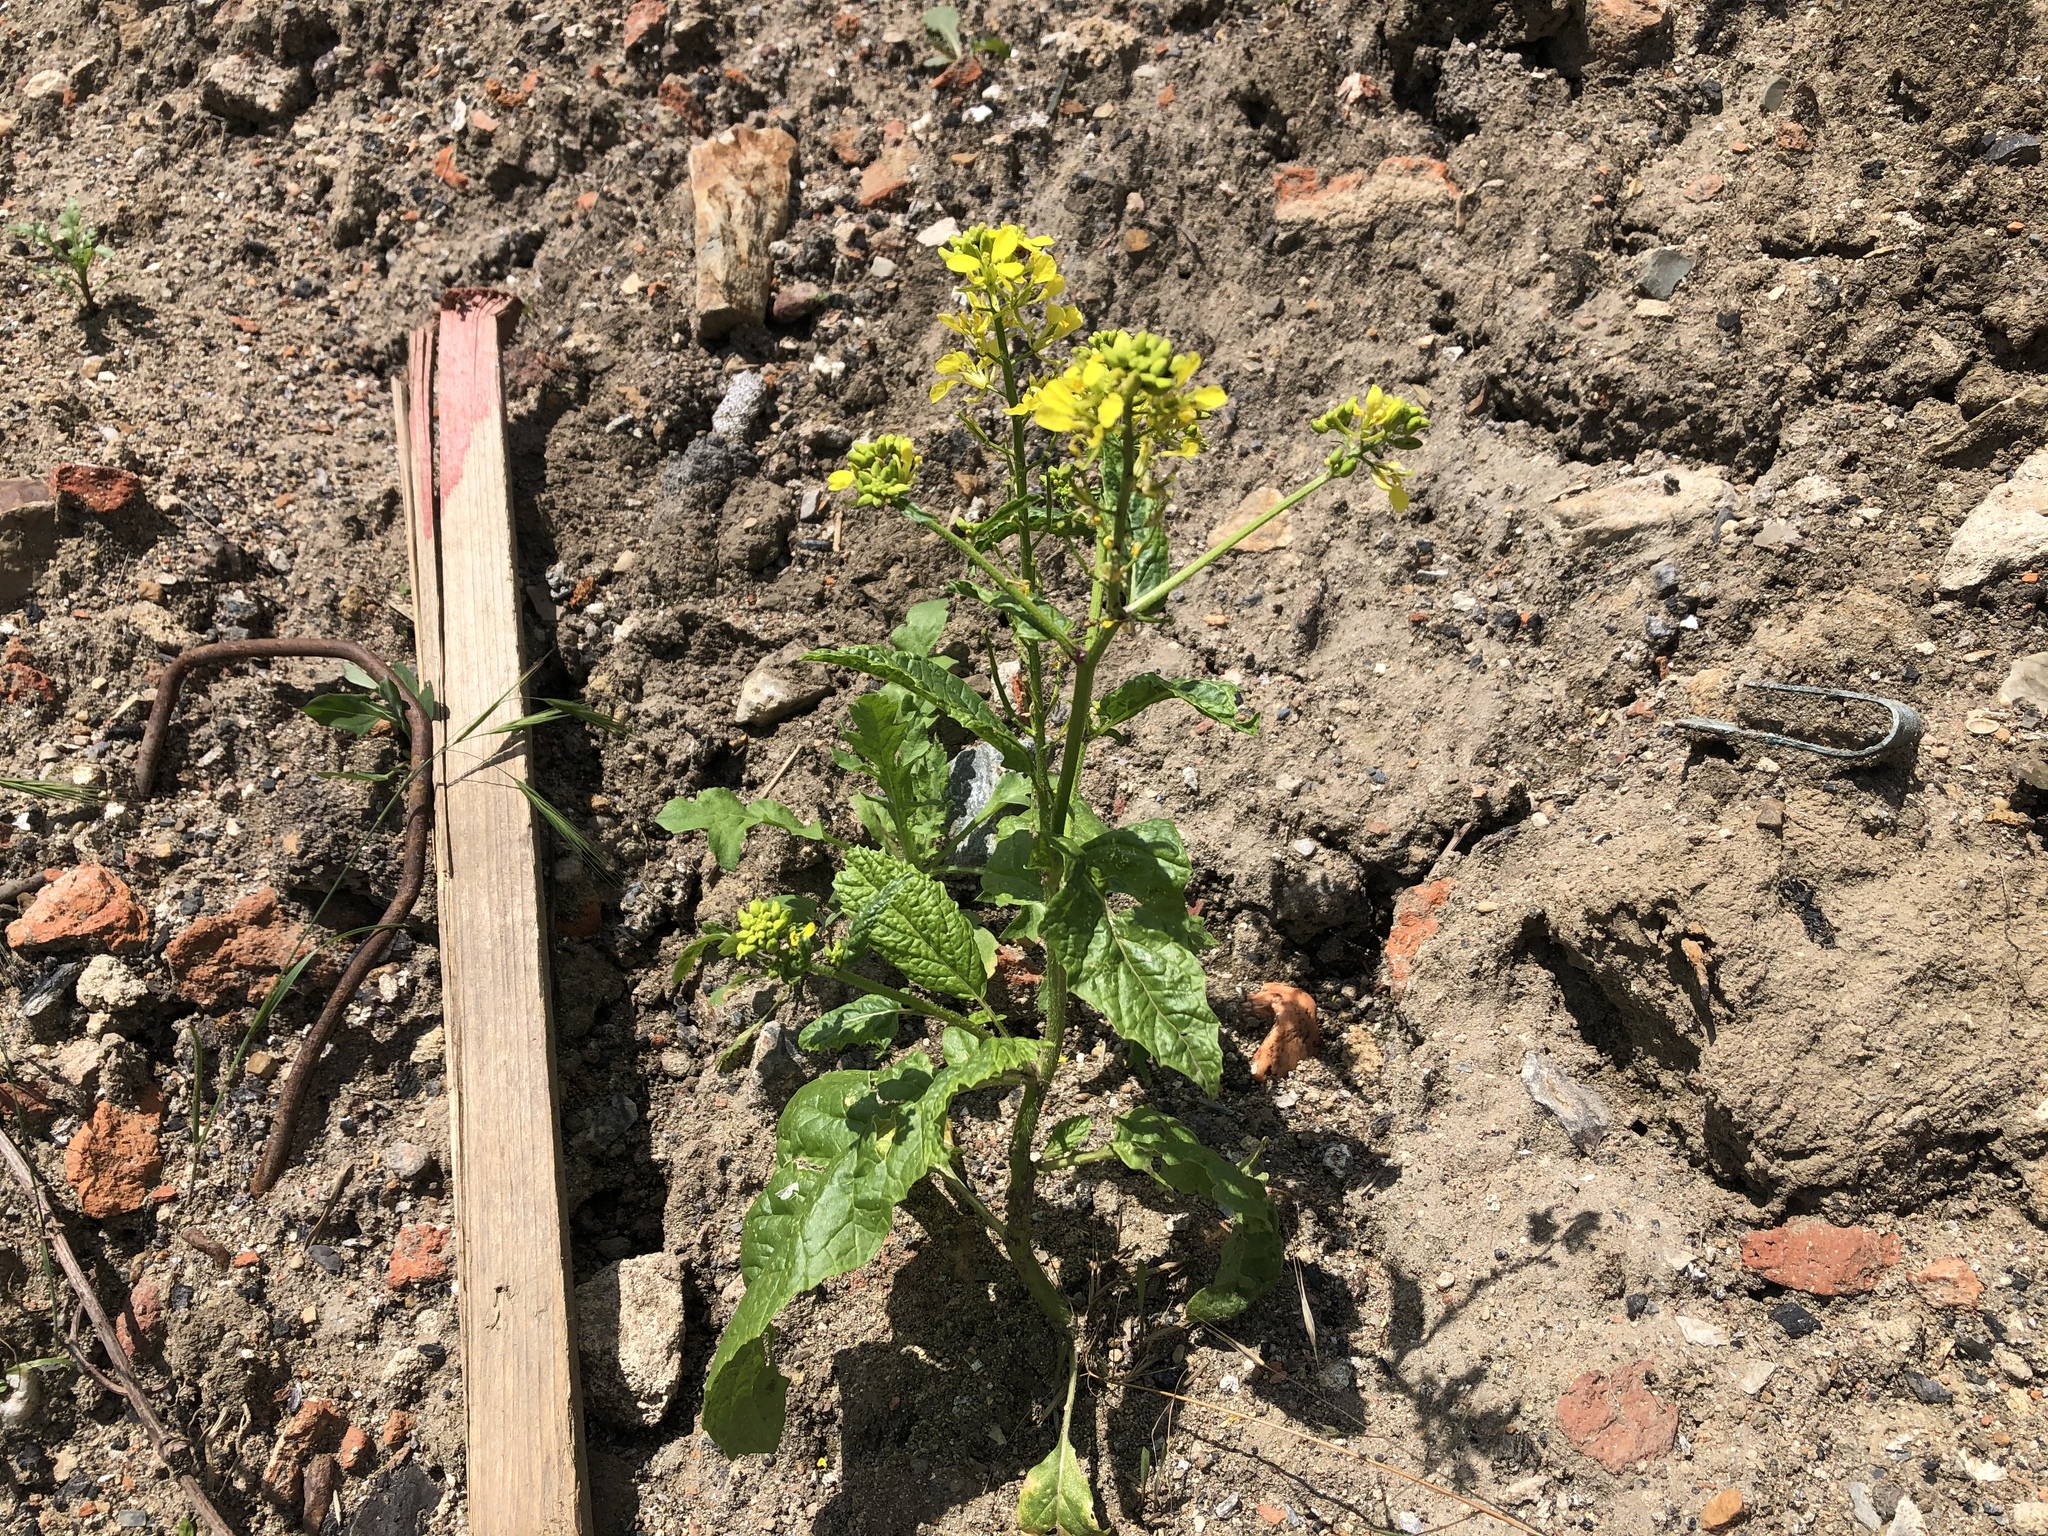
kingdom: Plantae
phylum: Tracheophyta
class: Magnoliopsida
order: Brassicales
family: Brassicaceae
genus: Sinapis
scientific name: Sinapis arvensis
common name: Charlock
